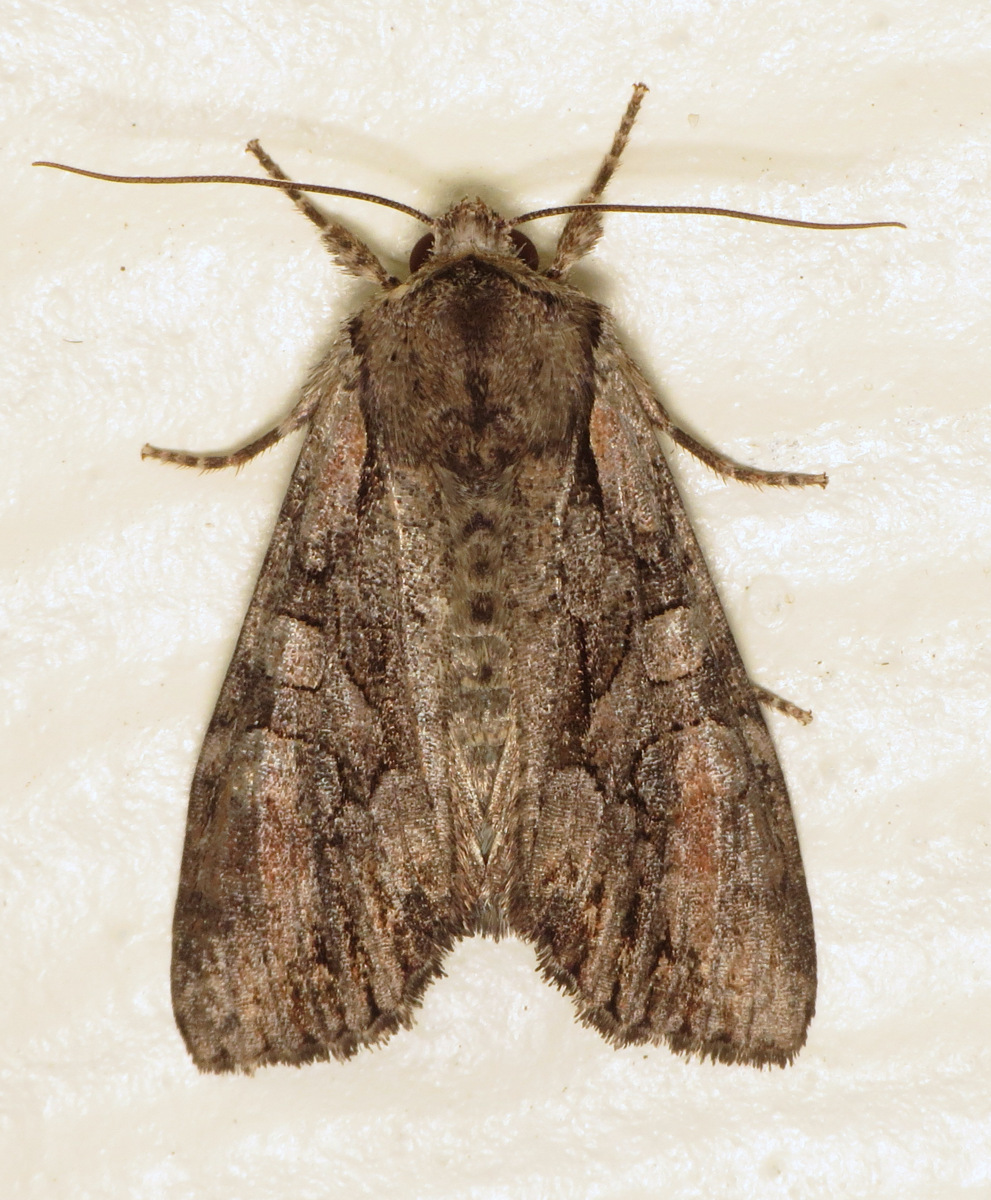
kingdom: Animalia
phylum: Arthropoda
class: Insecta
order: Lepidoptera
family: Noctuidae
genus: Lacanobia
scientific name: Lacanobia subjuncta
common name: Speckled cutworm moth
